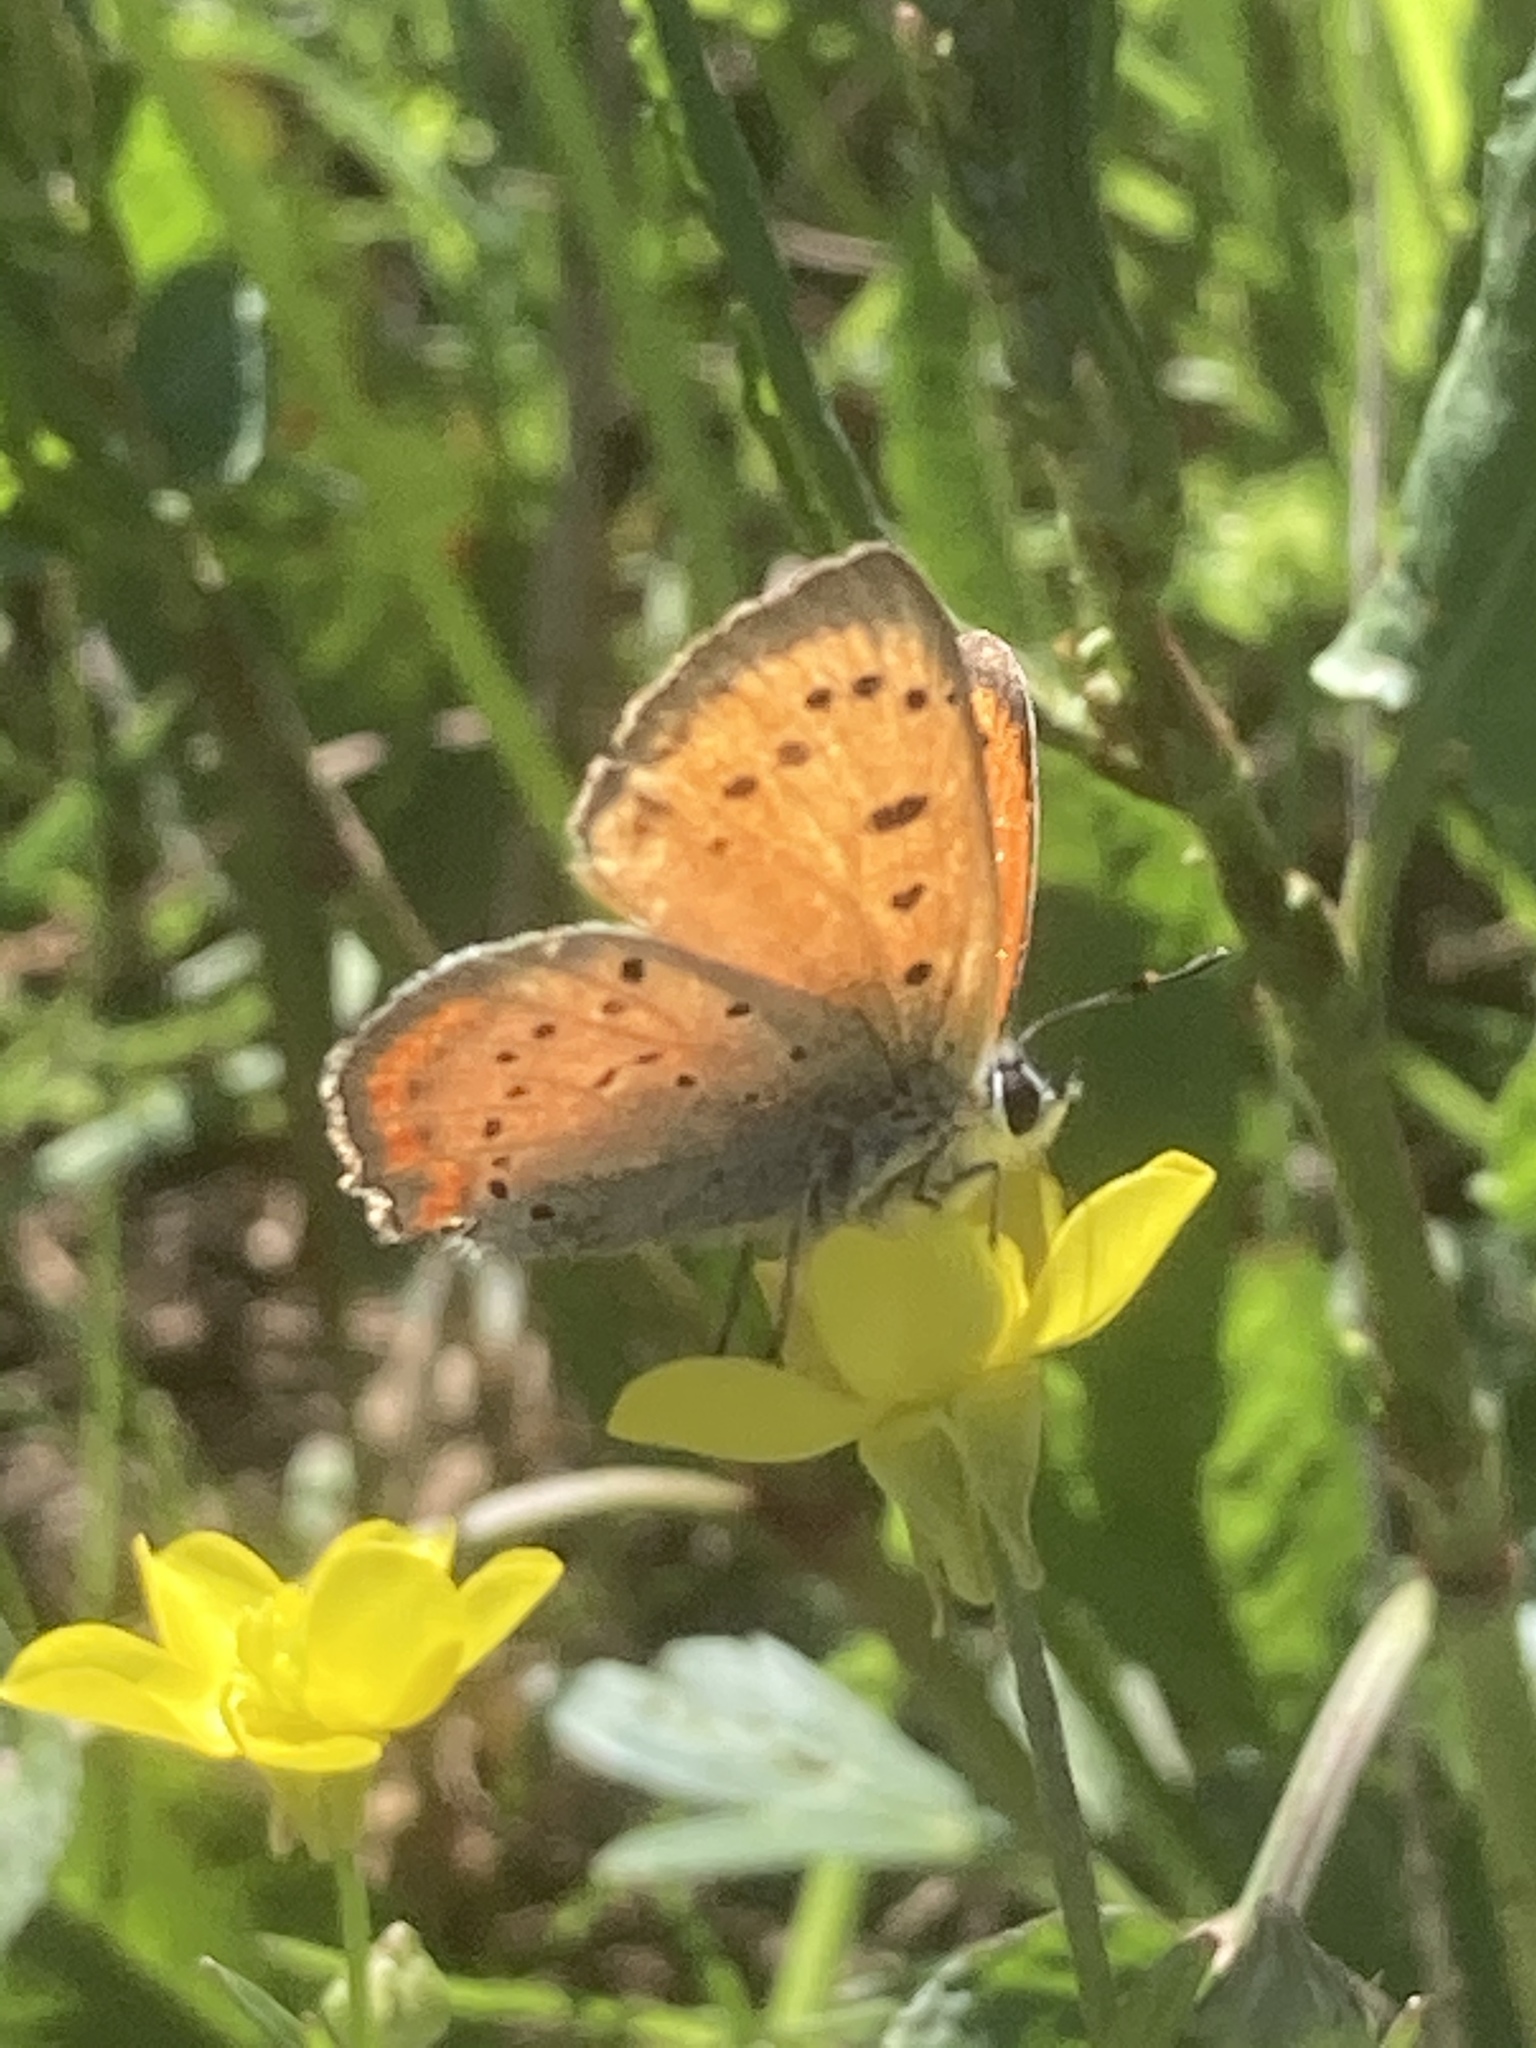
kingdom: Animalia
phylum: Arthropoda
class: Insecta
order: Lepidoptera
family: Lycaenidae
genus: Polyommatus
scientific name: Polyommatus ottomanus
